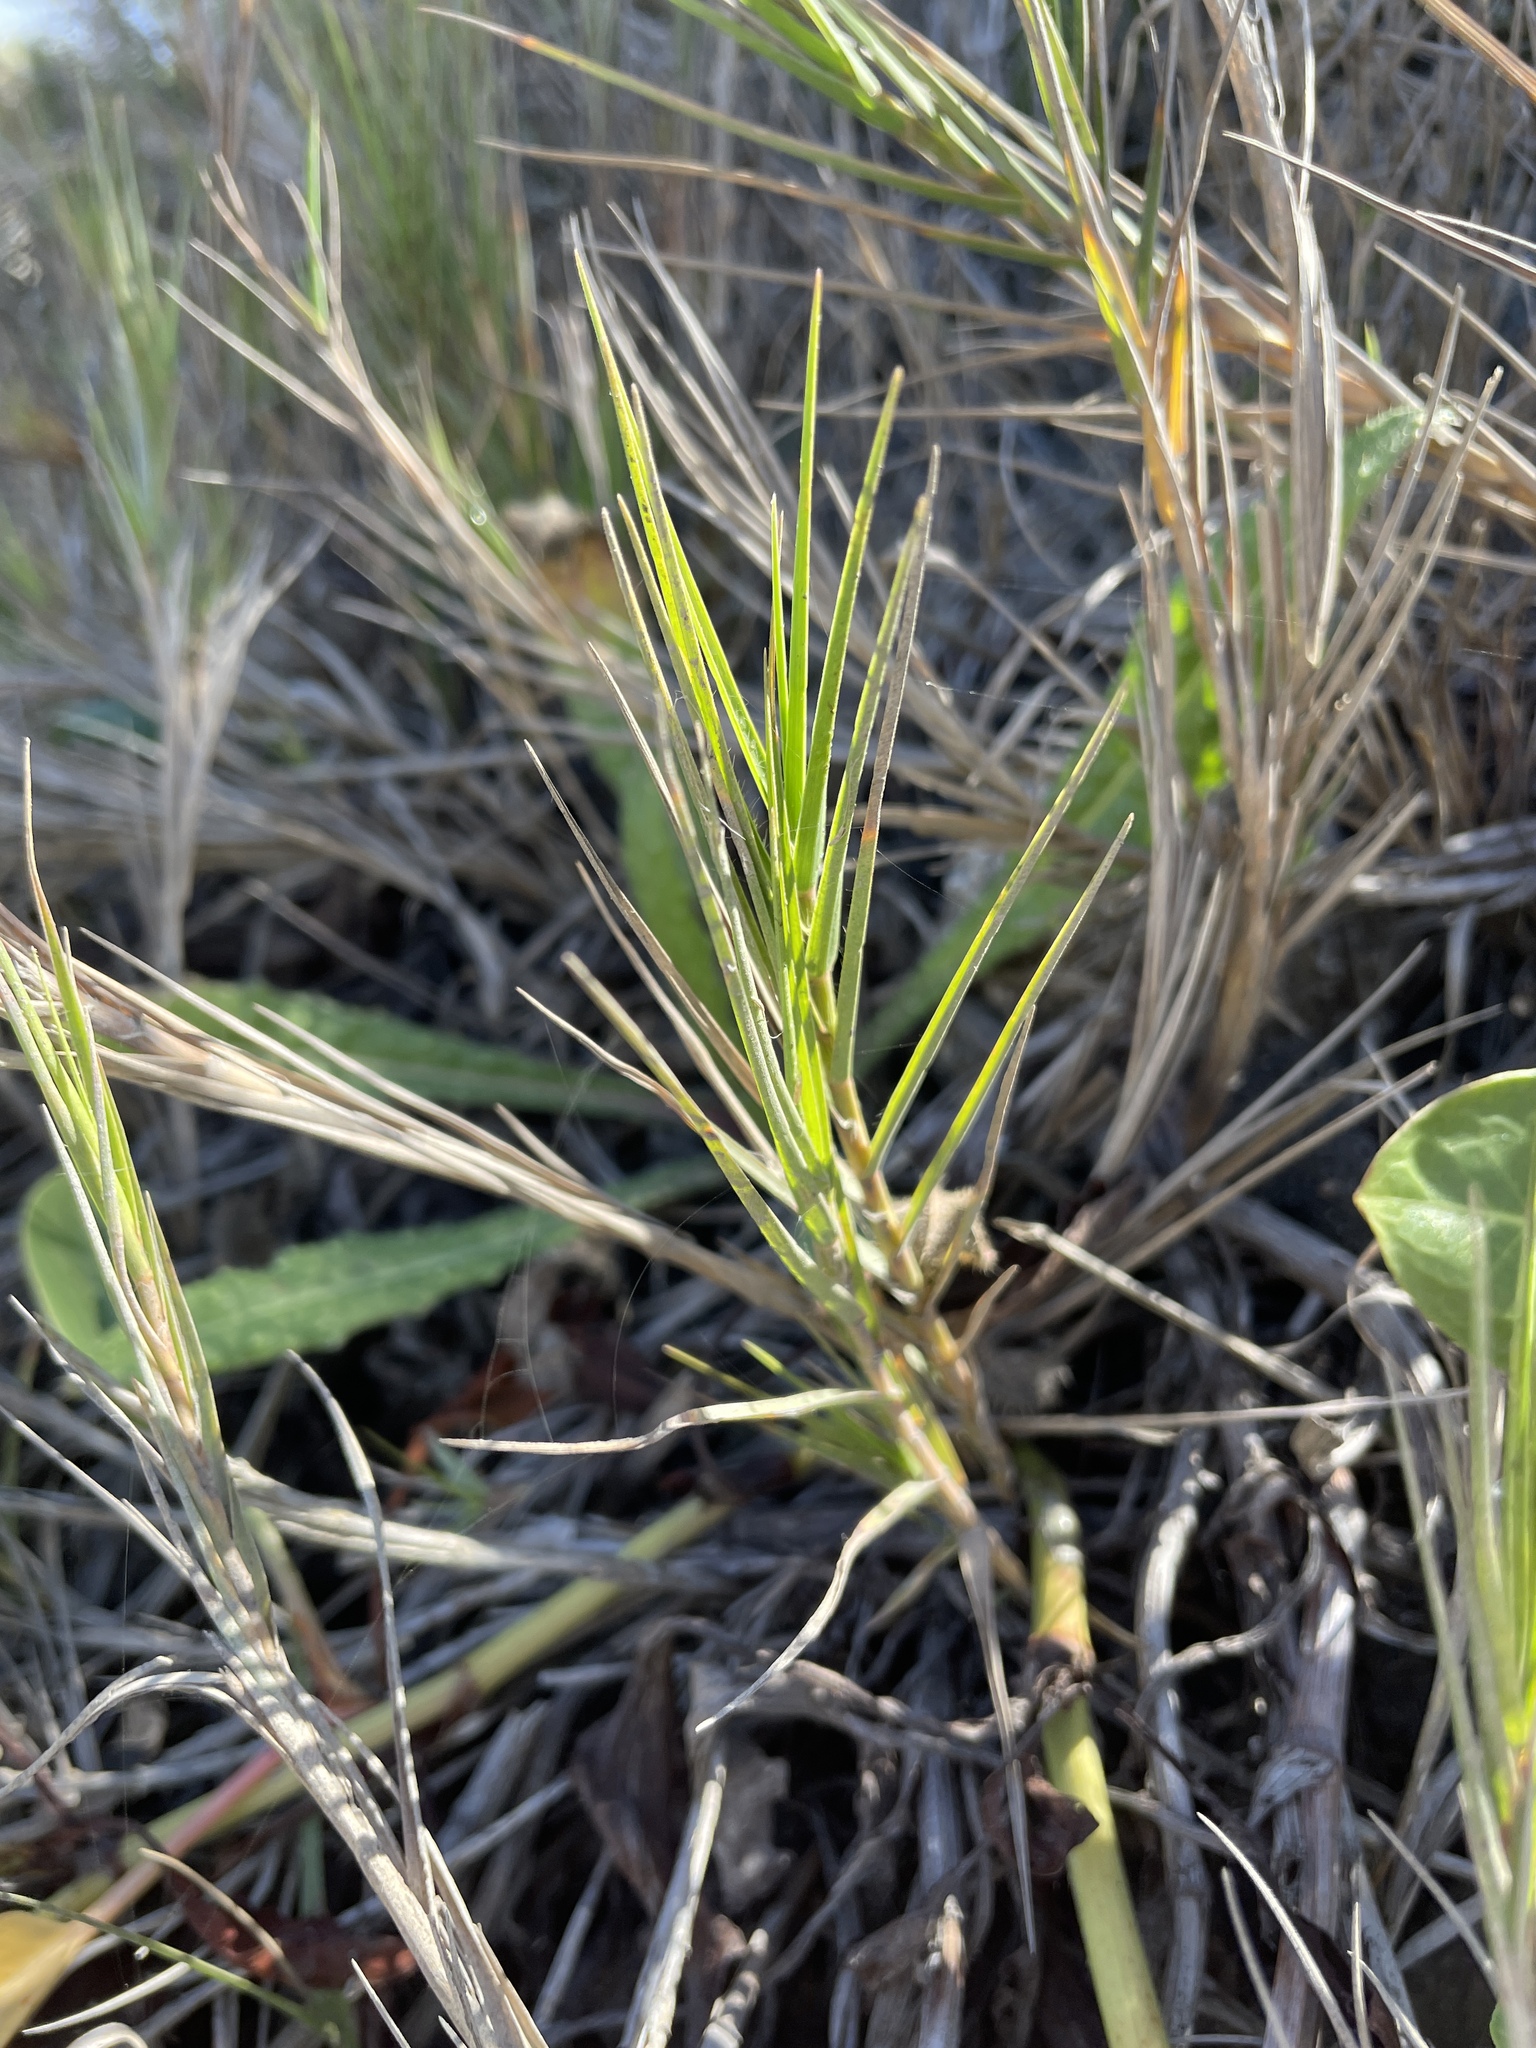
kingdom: Plantae
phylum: Tracheophyta
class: Liliopsida
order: Poales
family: Poaceae
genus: Distichlis
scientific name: Distichlis spicata
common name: Saltgrass
